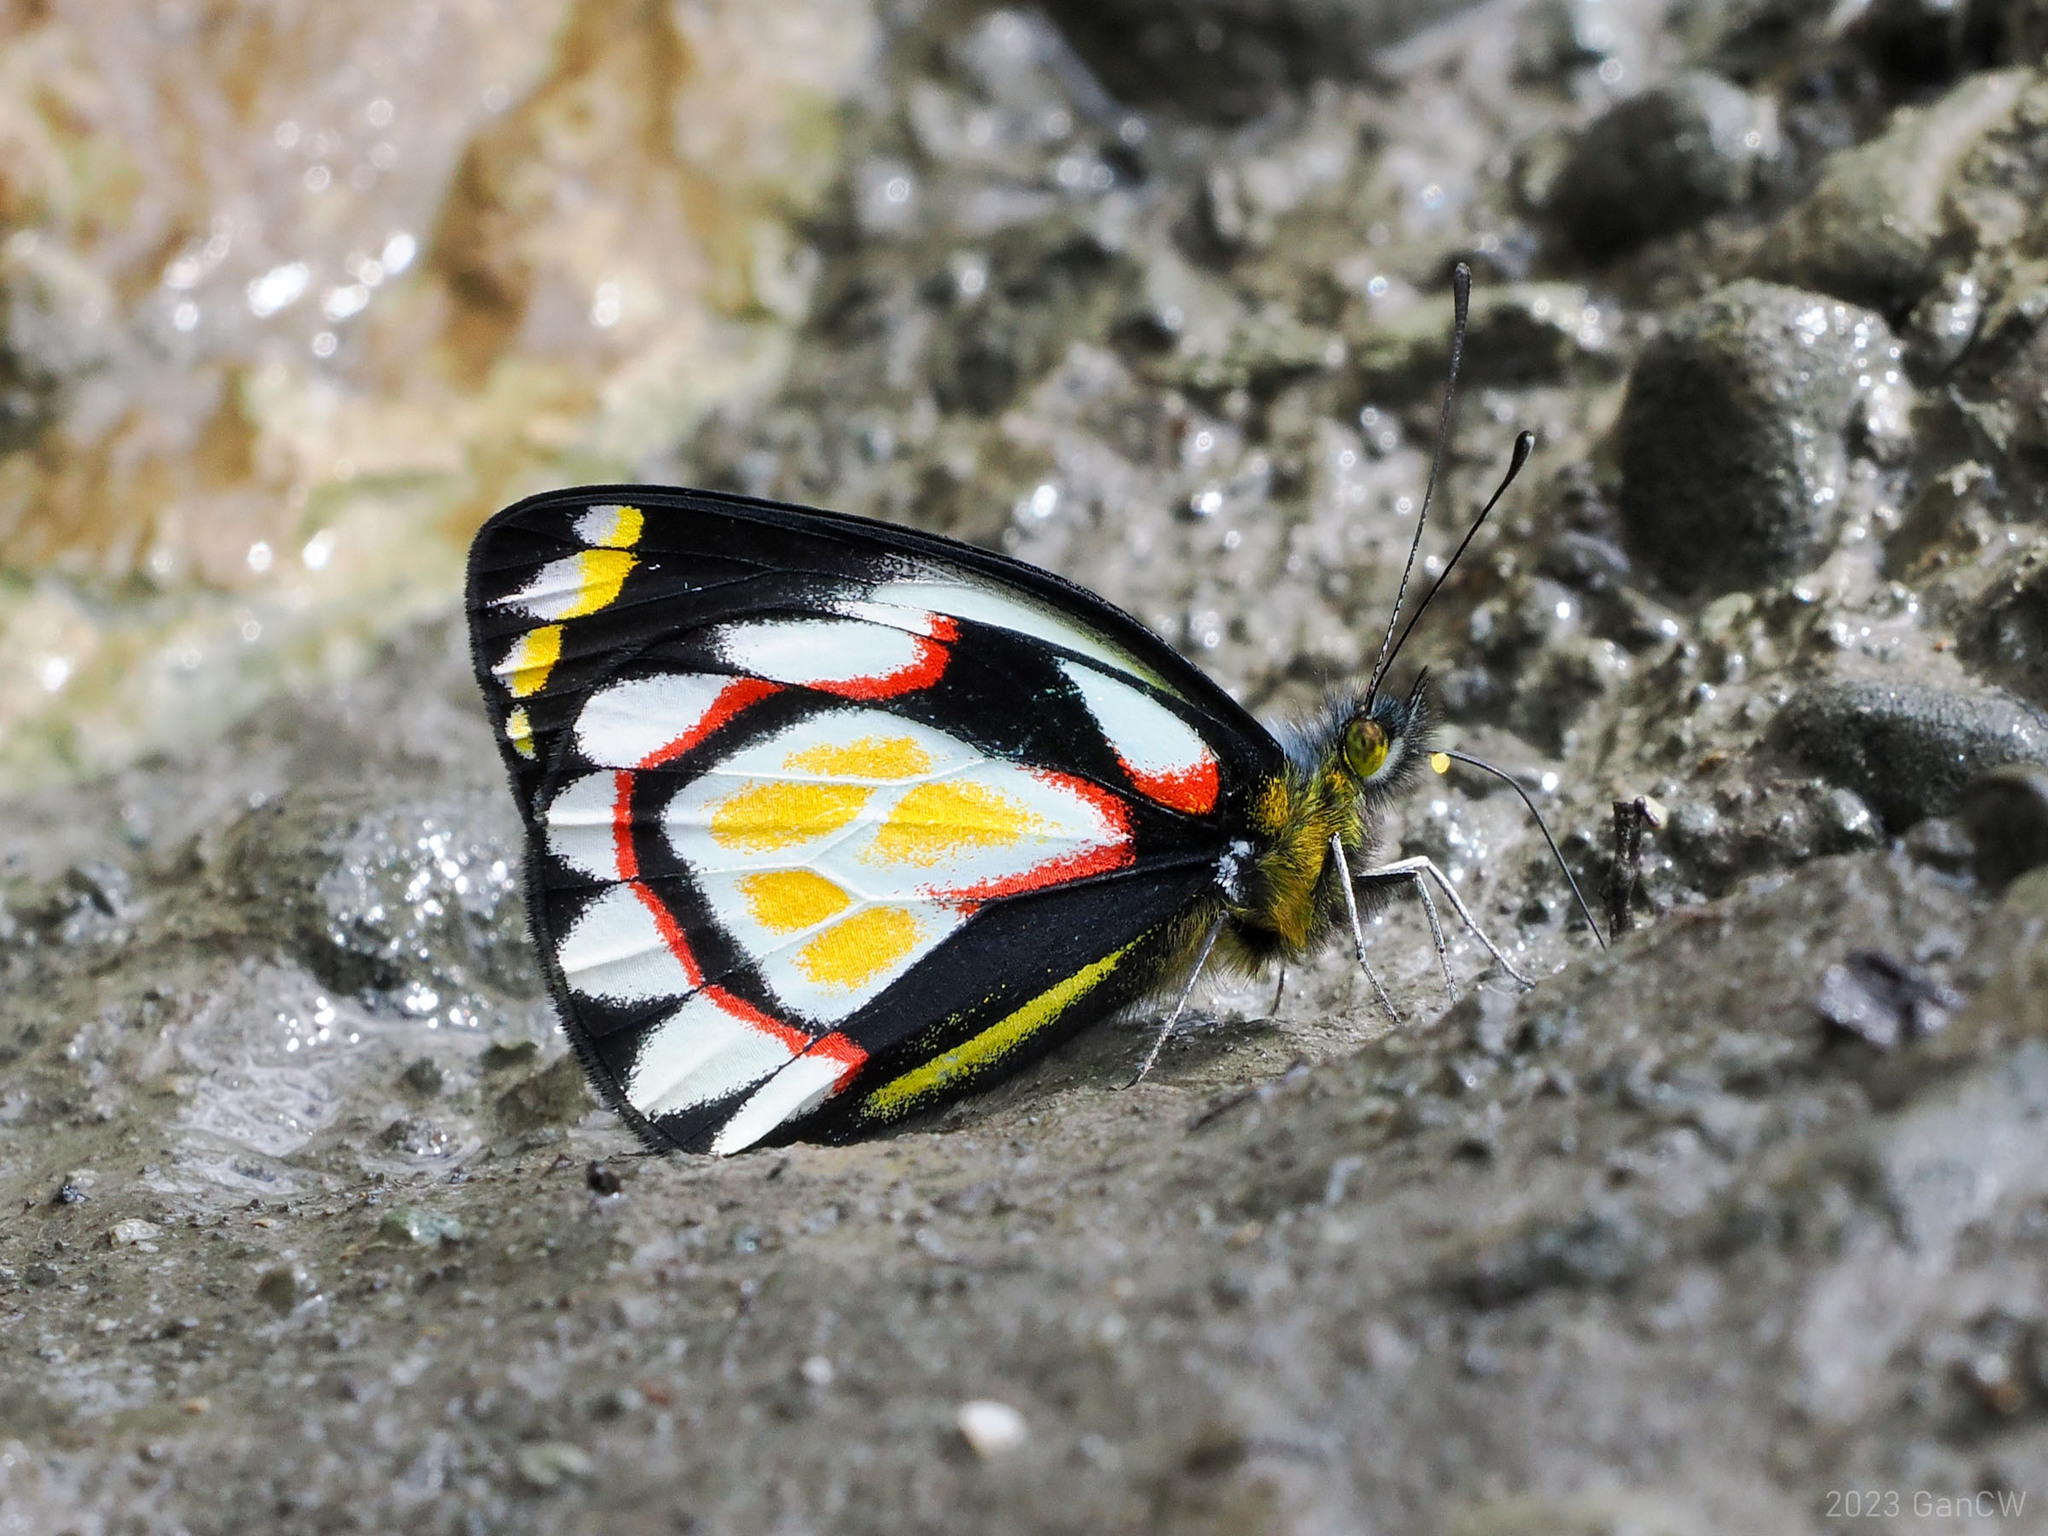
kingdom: Animalia
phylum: Arthropoda
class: Insecta
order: Lepidoptera
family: Pieridae
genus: Delias
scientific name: Delias flavistriga
